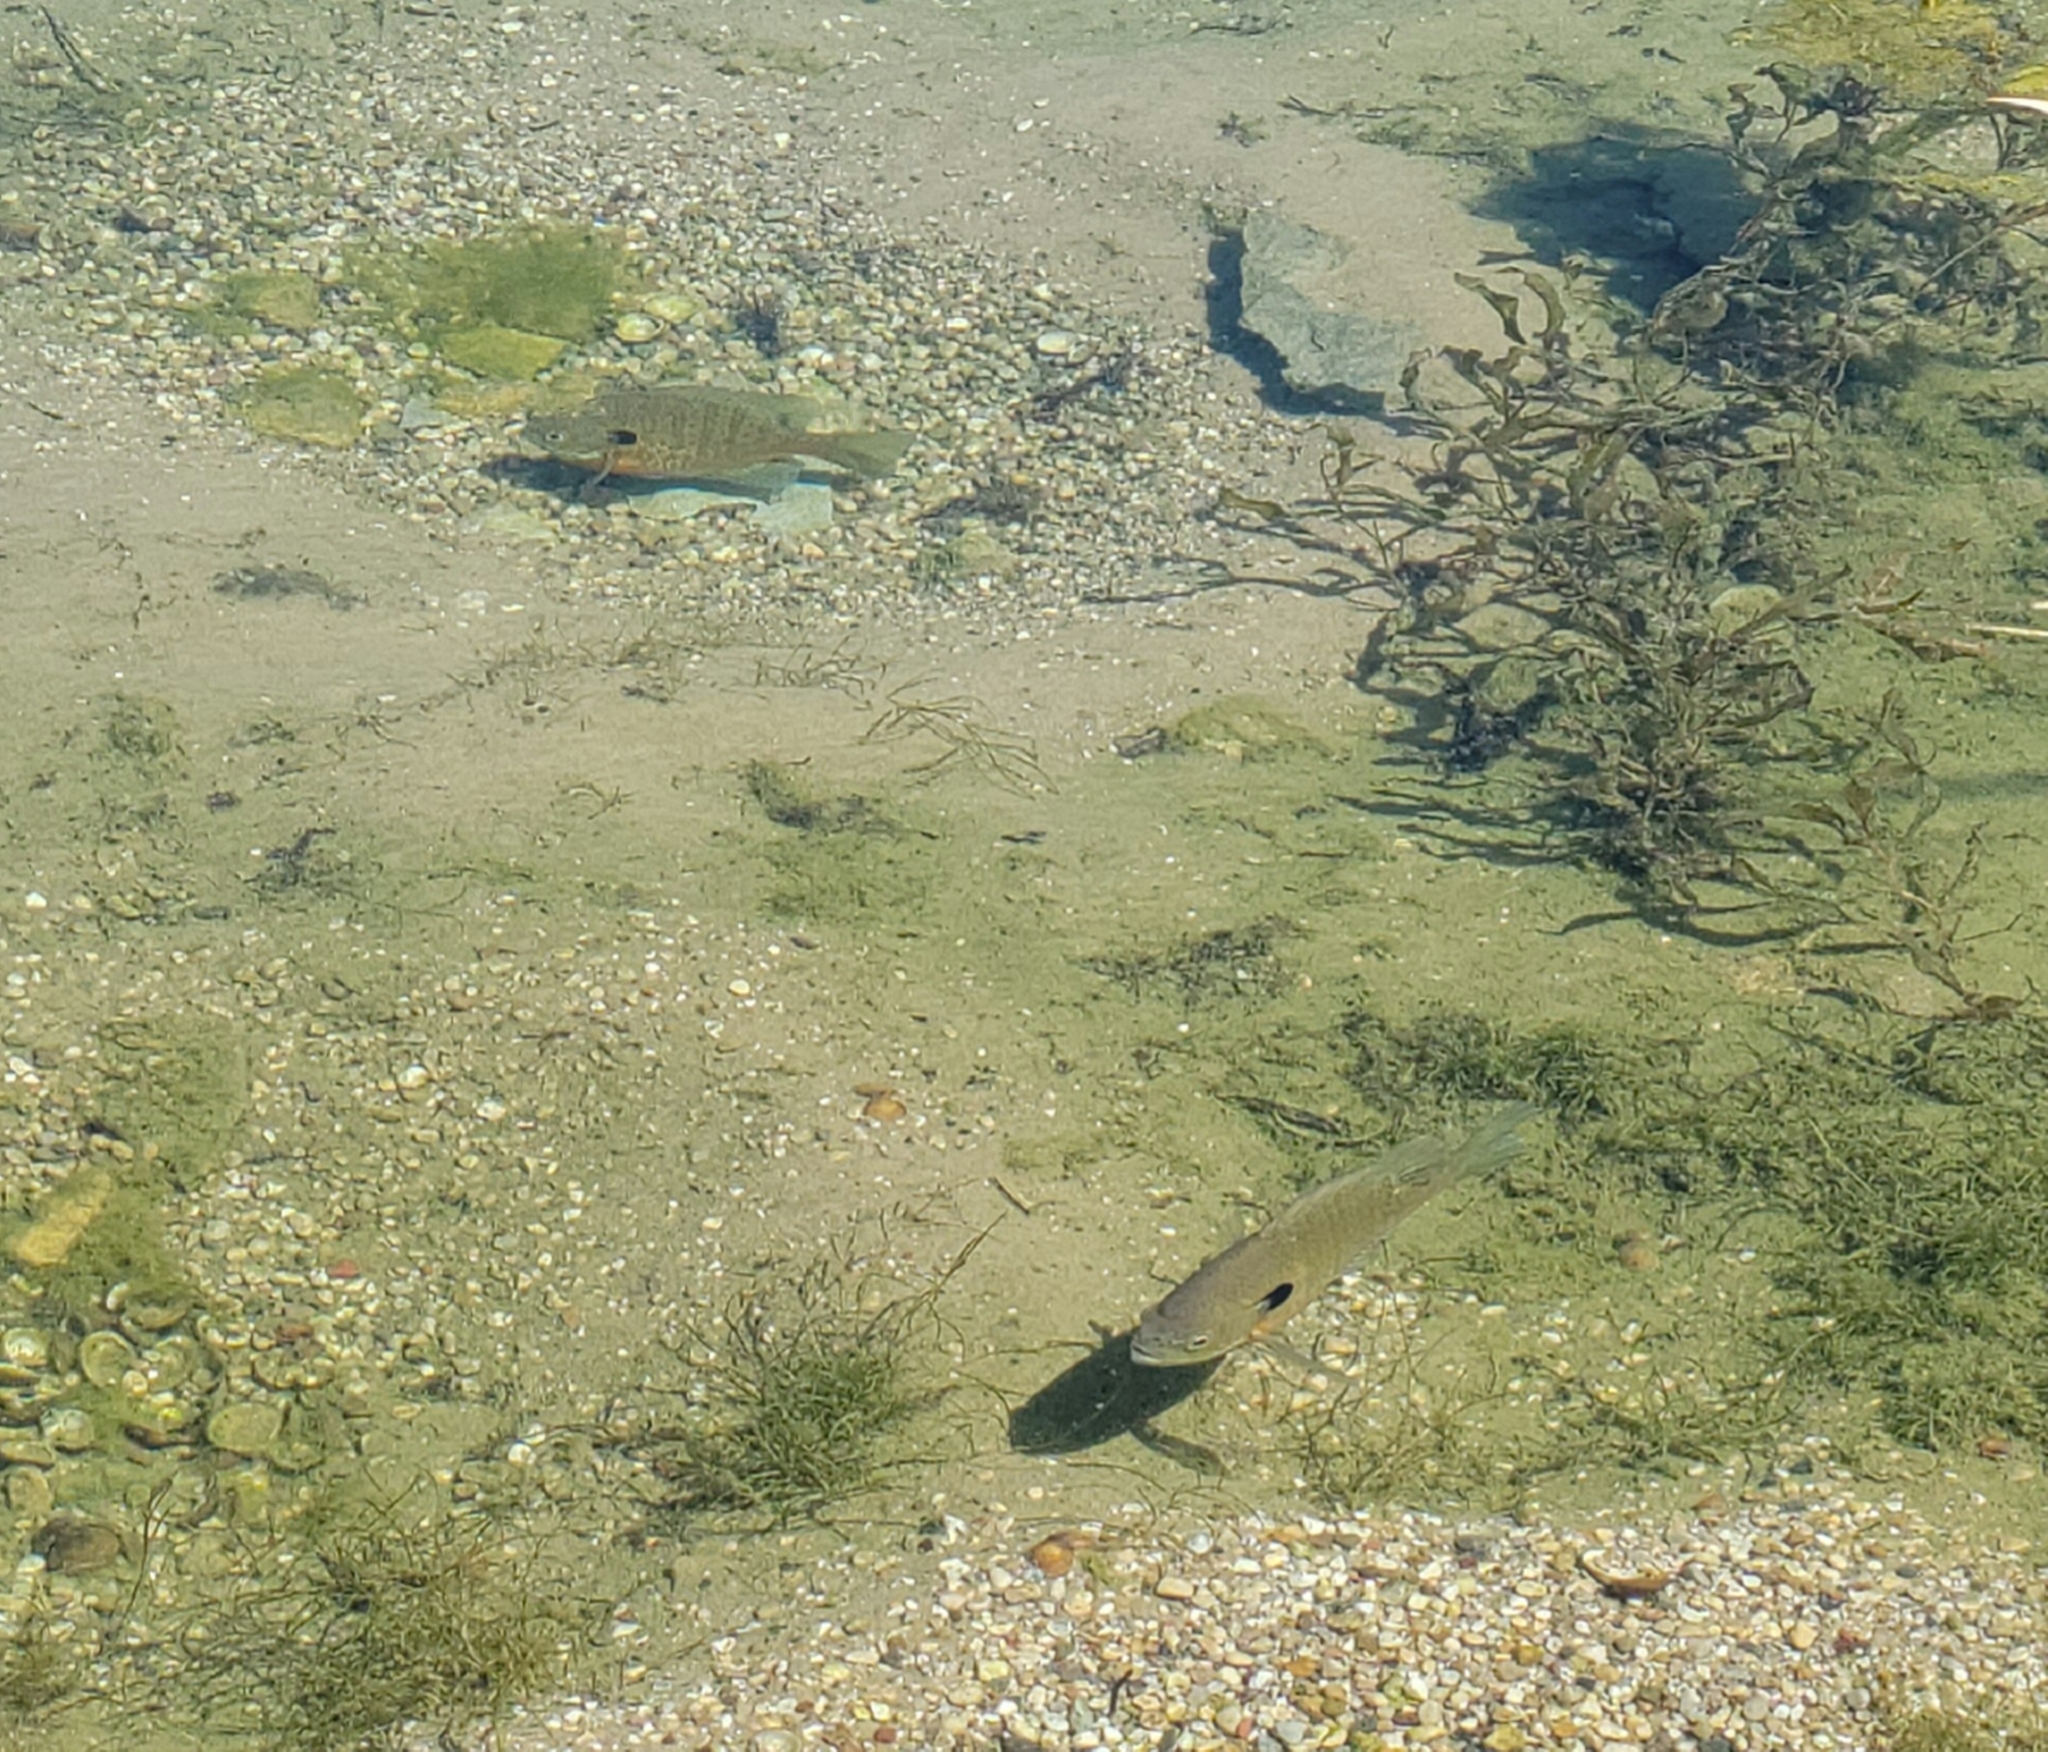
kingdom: Animalia
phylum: Chordata
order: Perciformes
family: Centrarchidae
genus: Lepomis
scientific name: Lepomis macrochirus
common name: Bluegill
